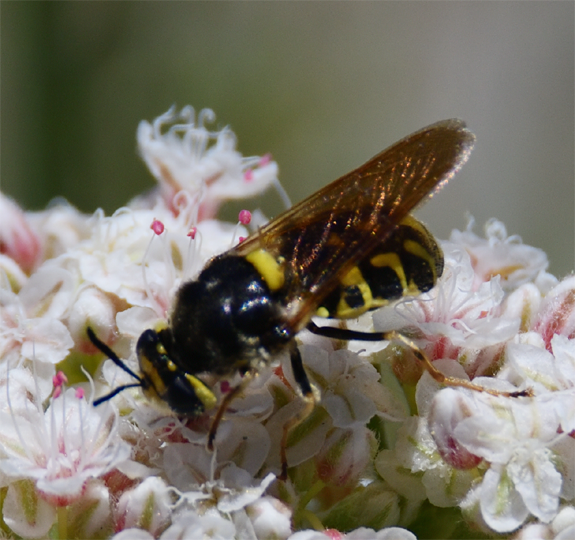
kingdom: Animalia
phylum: Arthropoda
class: Insecta
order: Diptera
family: Stratiomyidae
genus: Stratiomys
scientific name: Stratiomys maculosa
